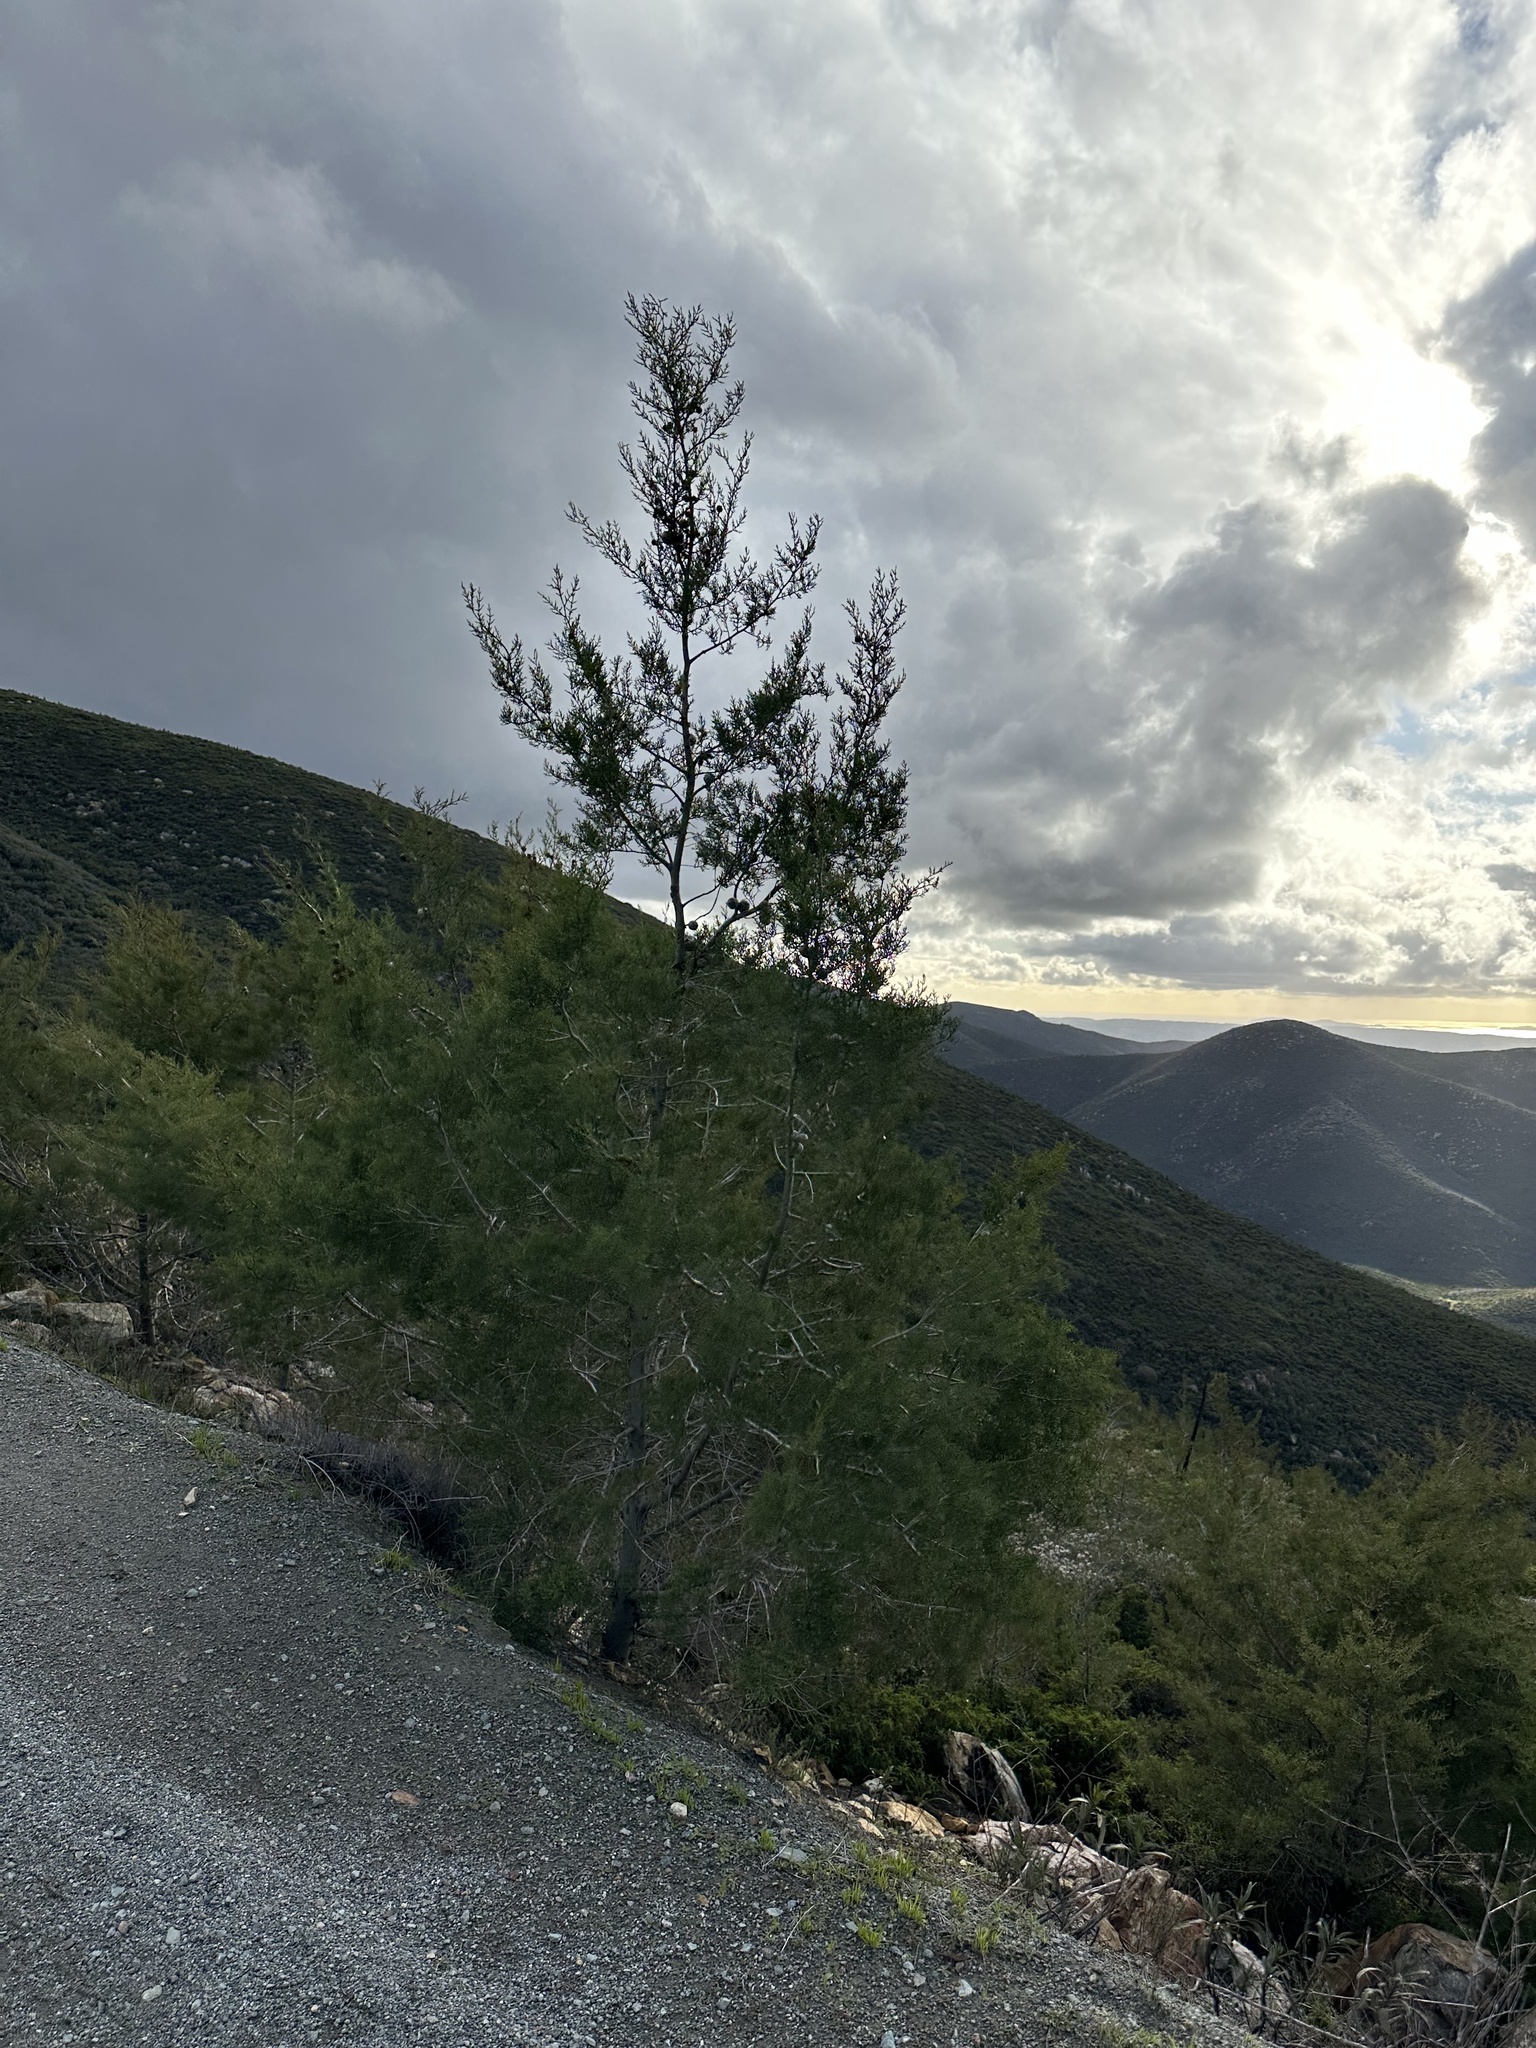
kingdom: Plantae
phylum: Tracheophyta
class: Pinopsida
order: Pinales
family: Cupressaceae
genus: Cupressus
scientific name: Cupressus guadalupensis
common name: Forbes cypress
